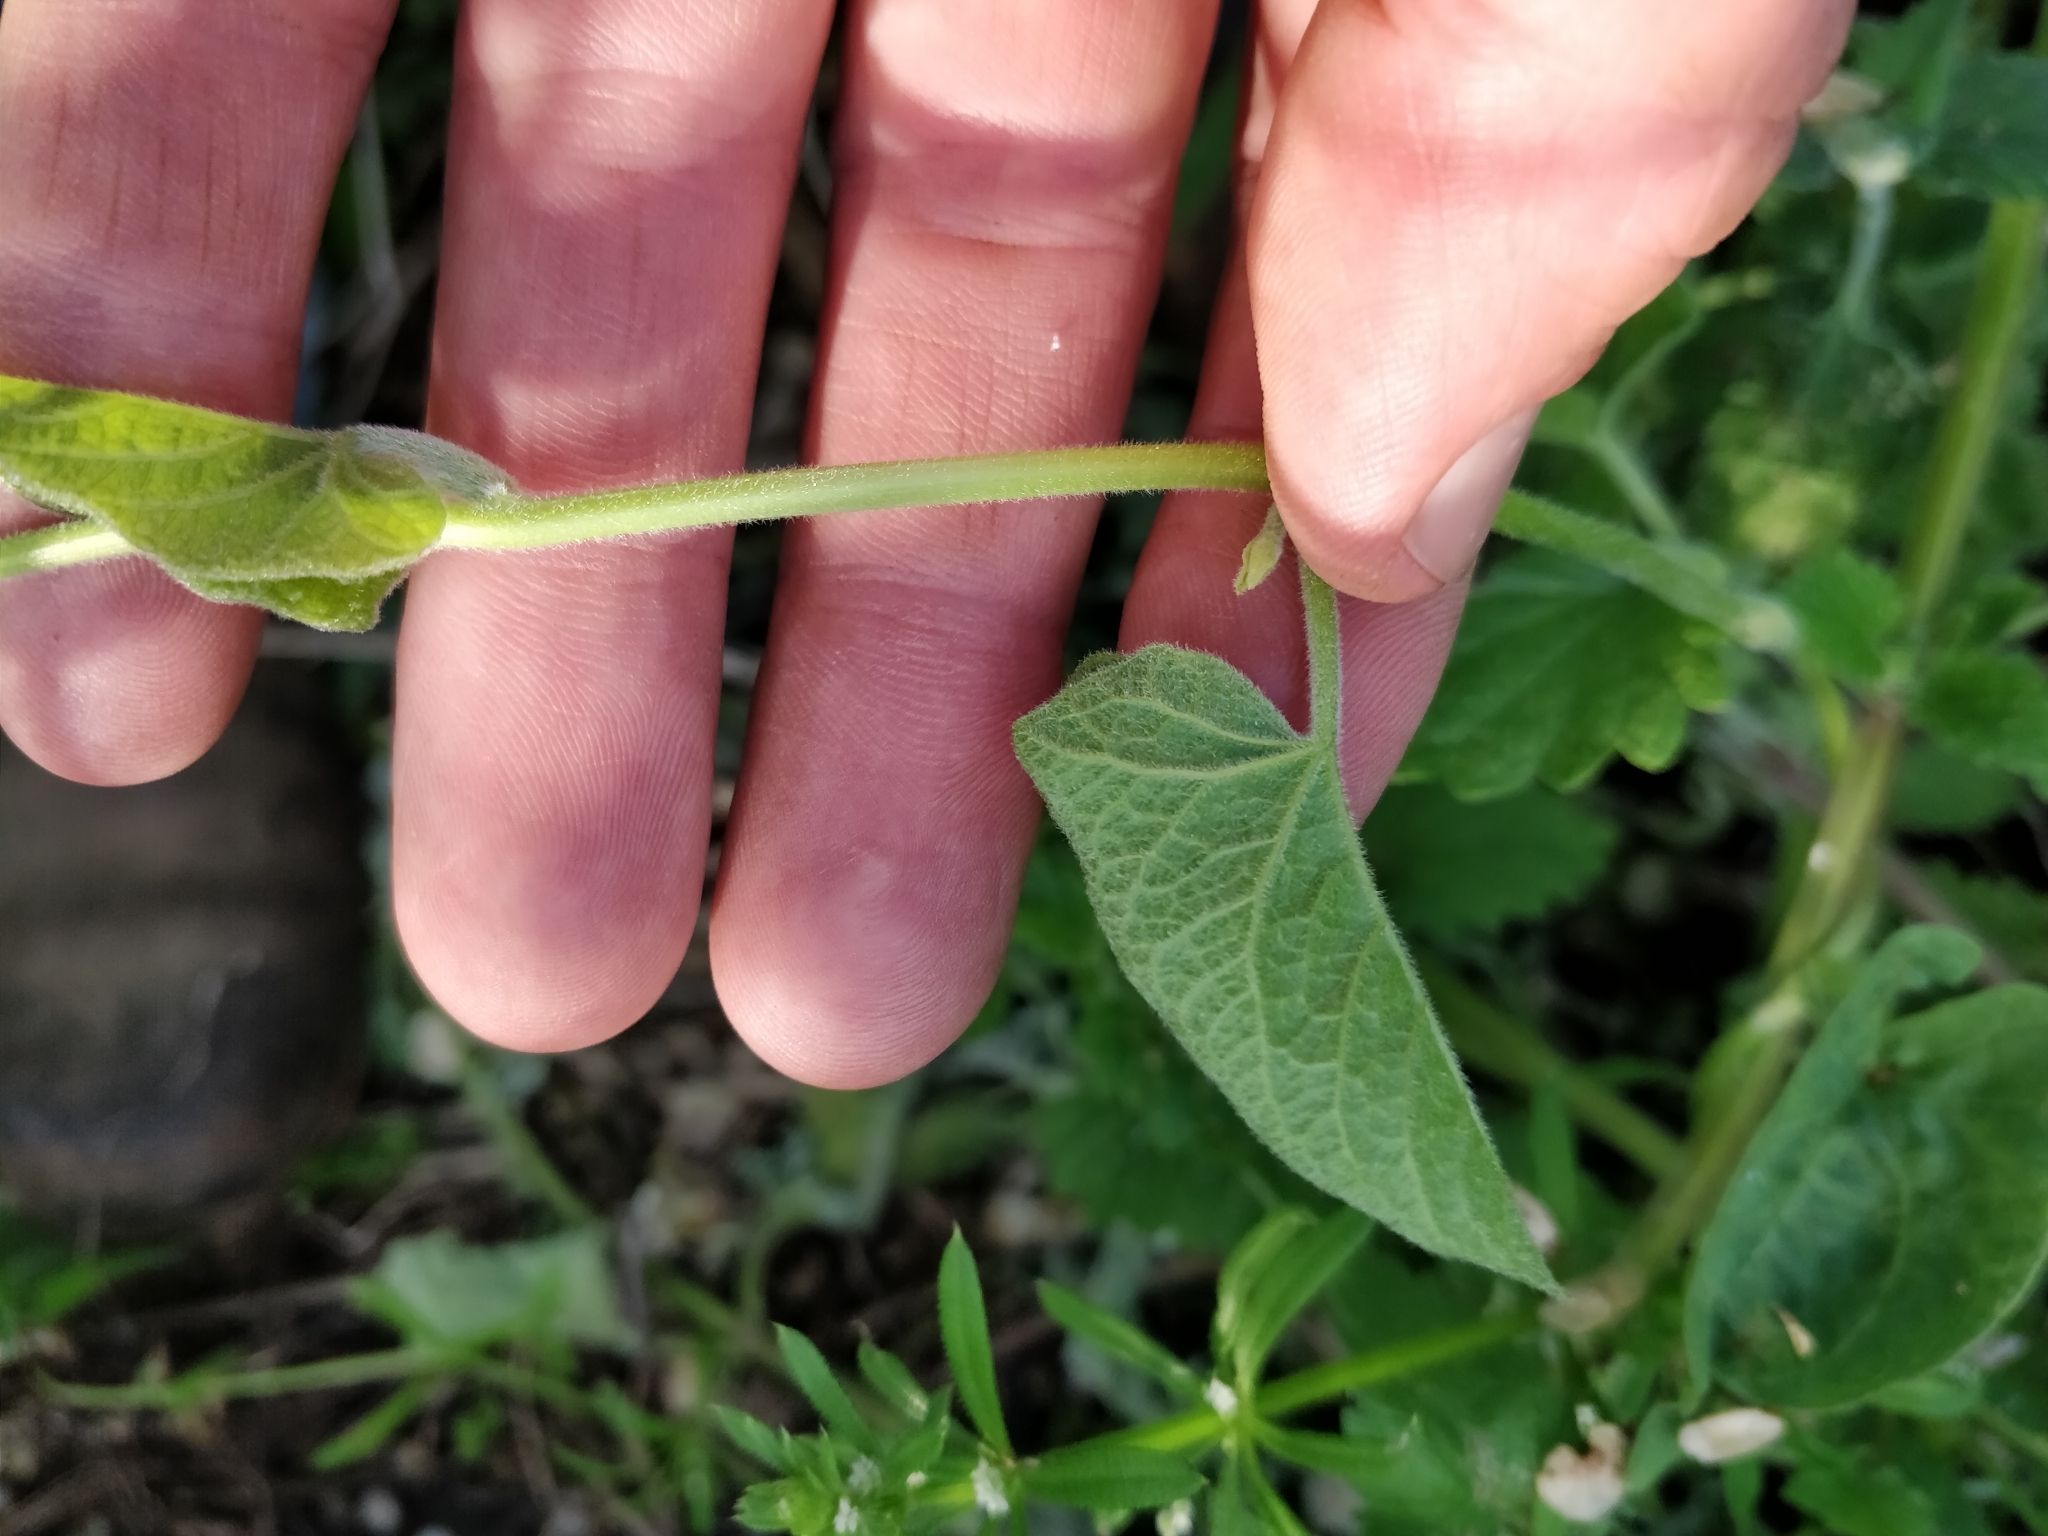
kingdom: Plantae
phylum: Tracheophyta
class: Magnoliopsida
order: Solanales
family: Convolvulaceae
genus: Calystegia
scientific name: Calystegia macounii
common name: Macoun's bindweed
